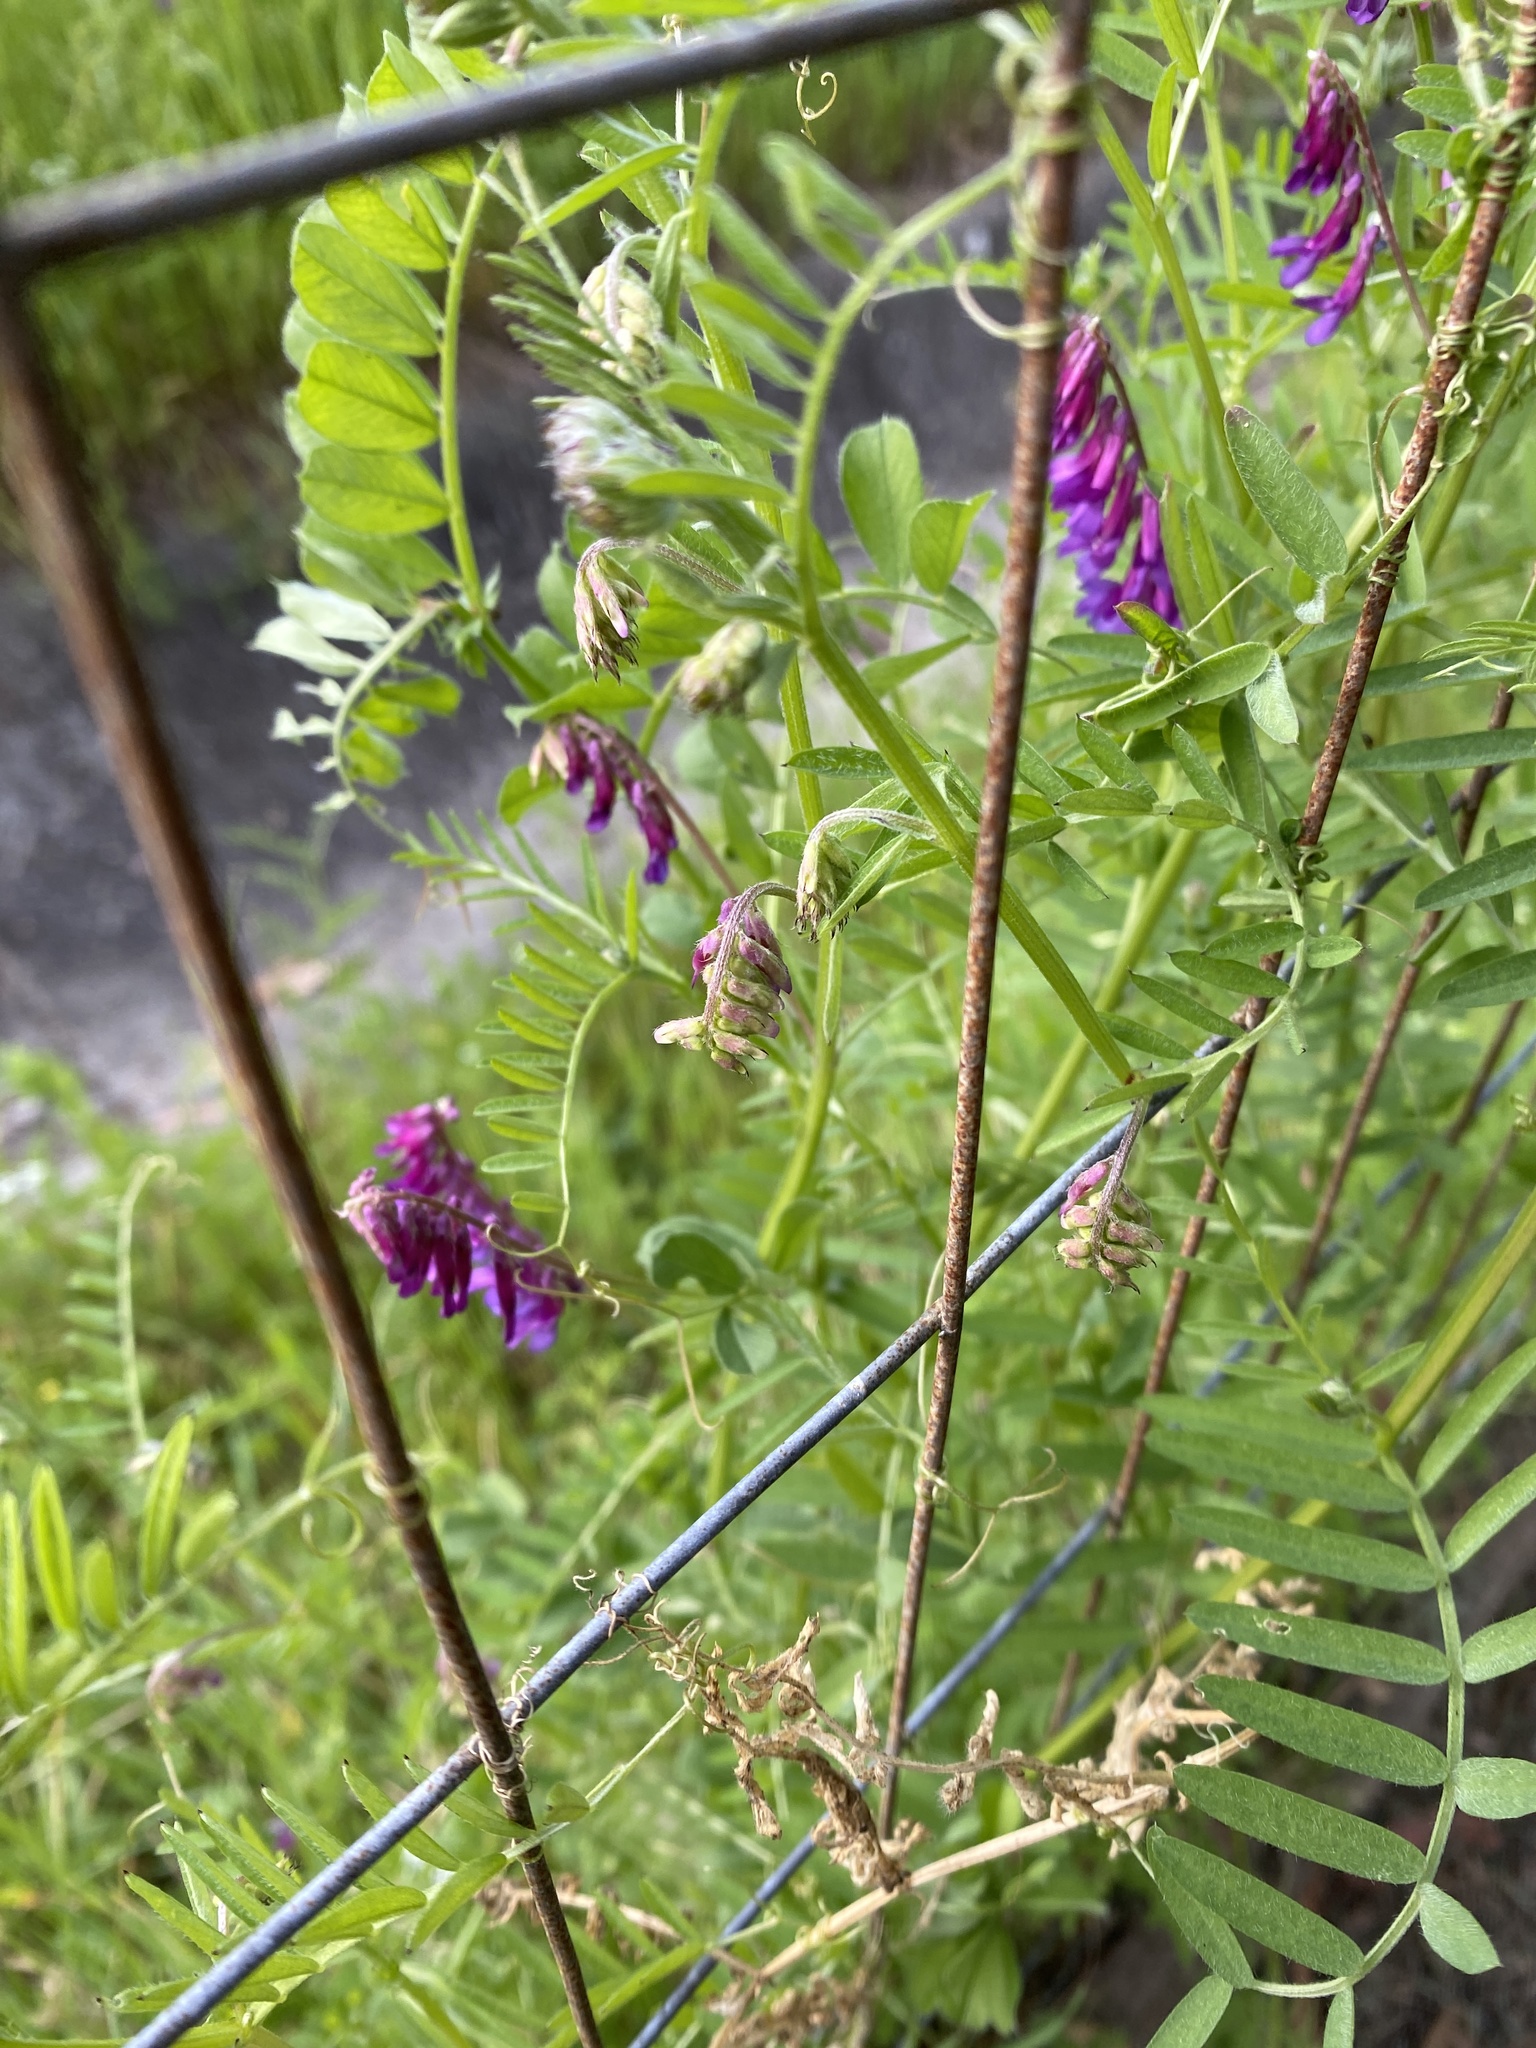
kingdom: Plantae
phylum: Tracheophyta
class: Magnoliopsida
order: Fabales
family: Fabaceae
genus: Vicia
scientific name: Vicia villosa
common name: Fodder vetch
